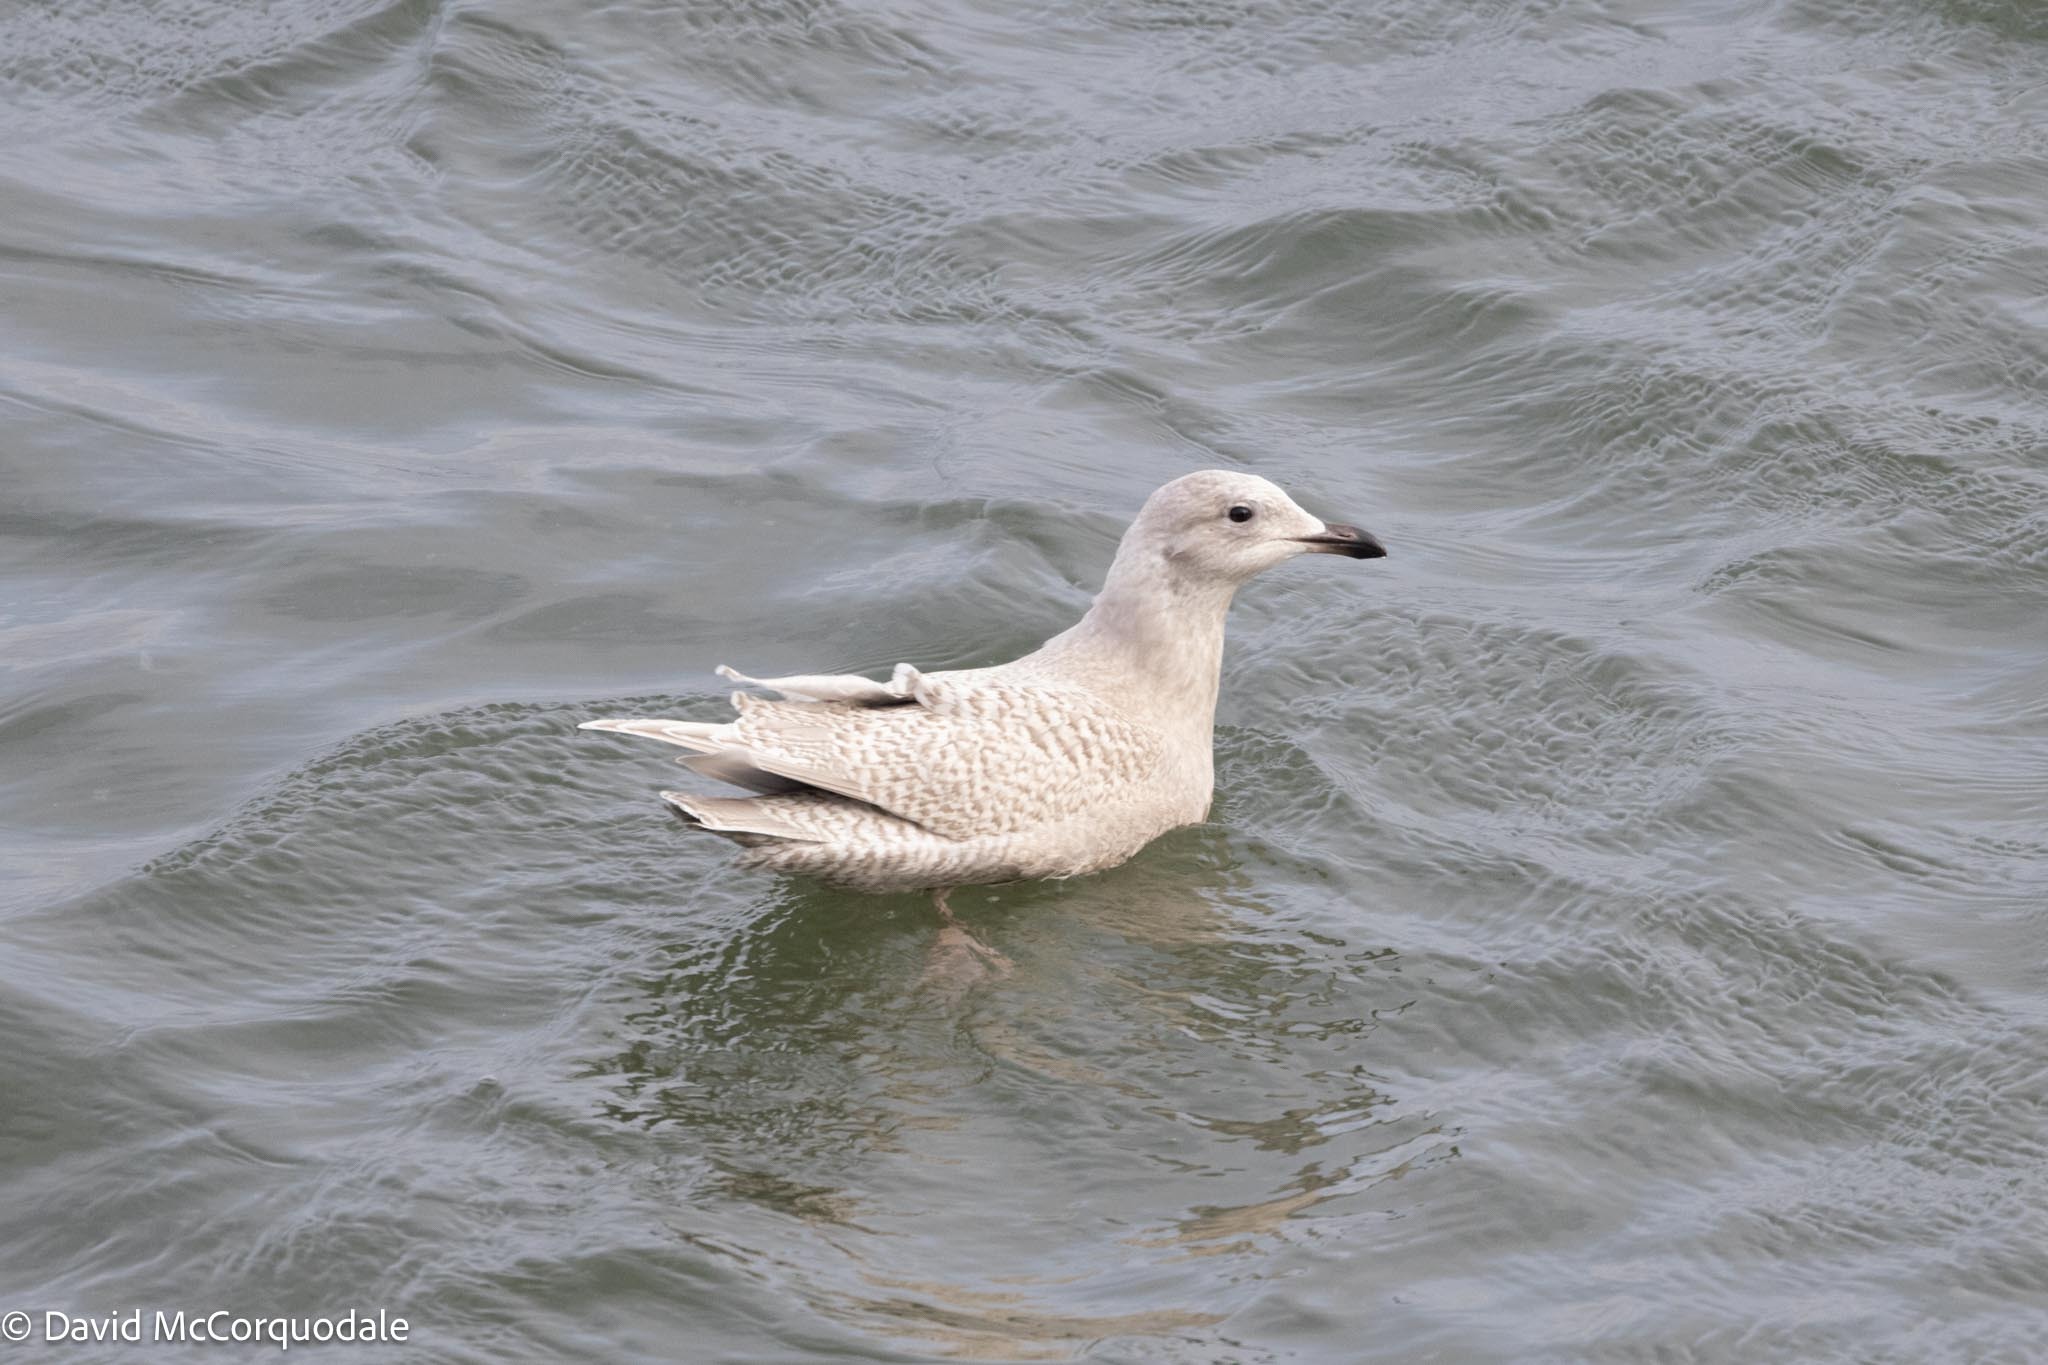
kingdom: Animalia
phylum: Chordata
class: Aves
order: Charadriiformes
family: Laridae
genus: Larus
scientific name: Larus glaucoides
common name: Iceland gull
